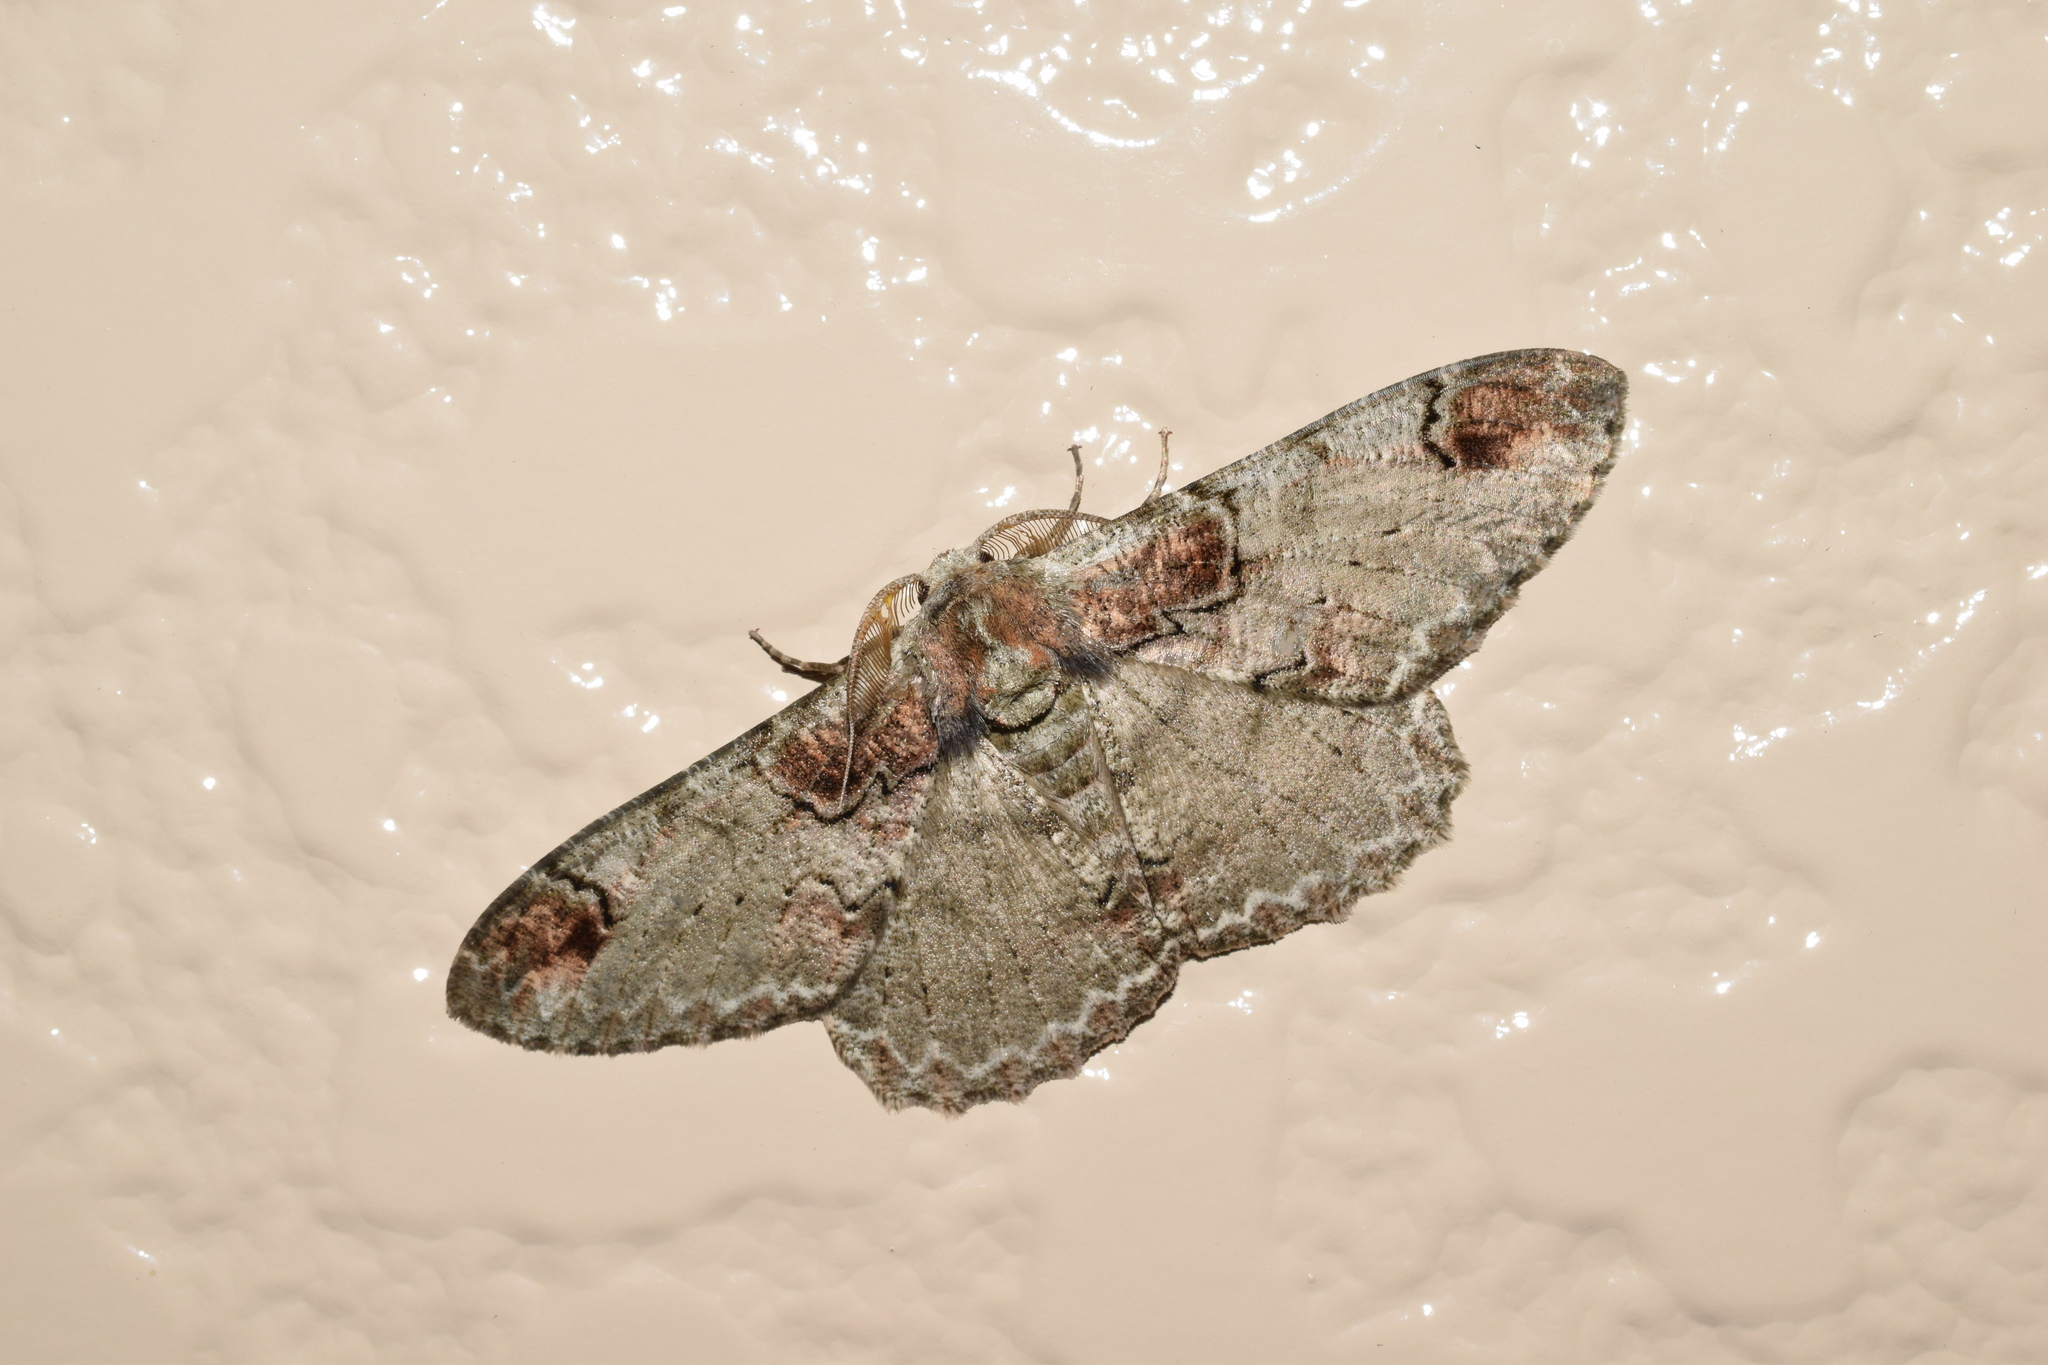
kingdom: Animalia
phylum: Arthropoda
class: Insecta
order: Lepidoptera
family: Geometridae
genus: Amraica
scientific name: Amraica superans
